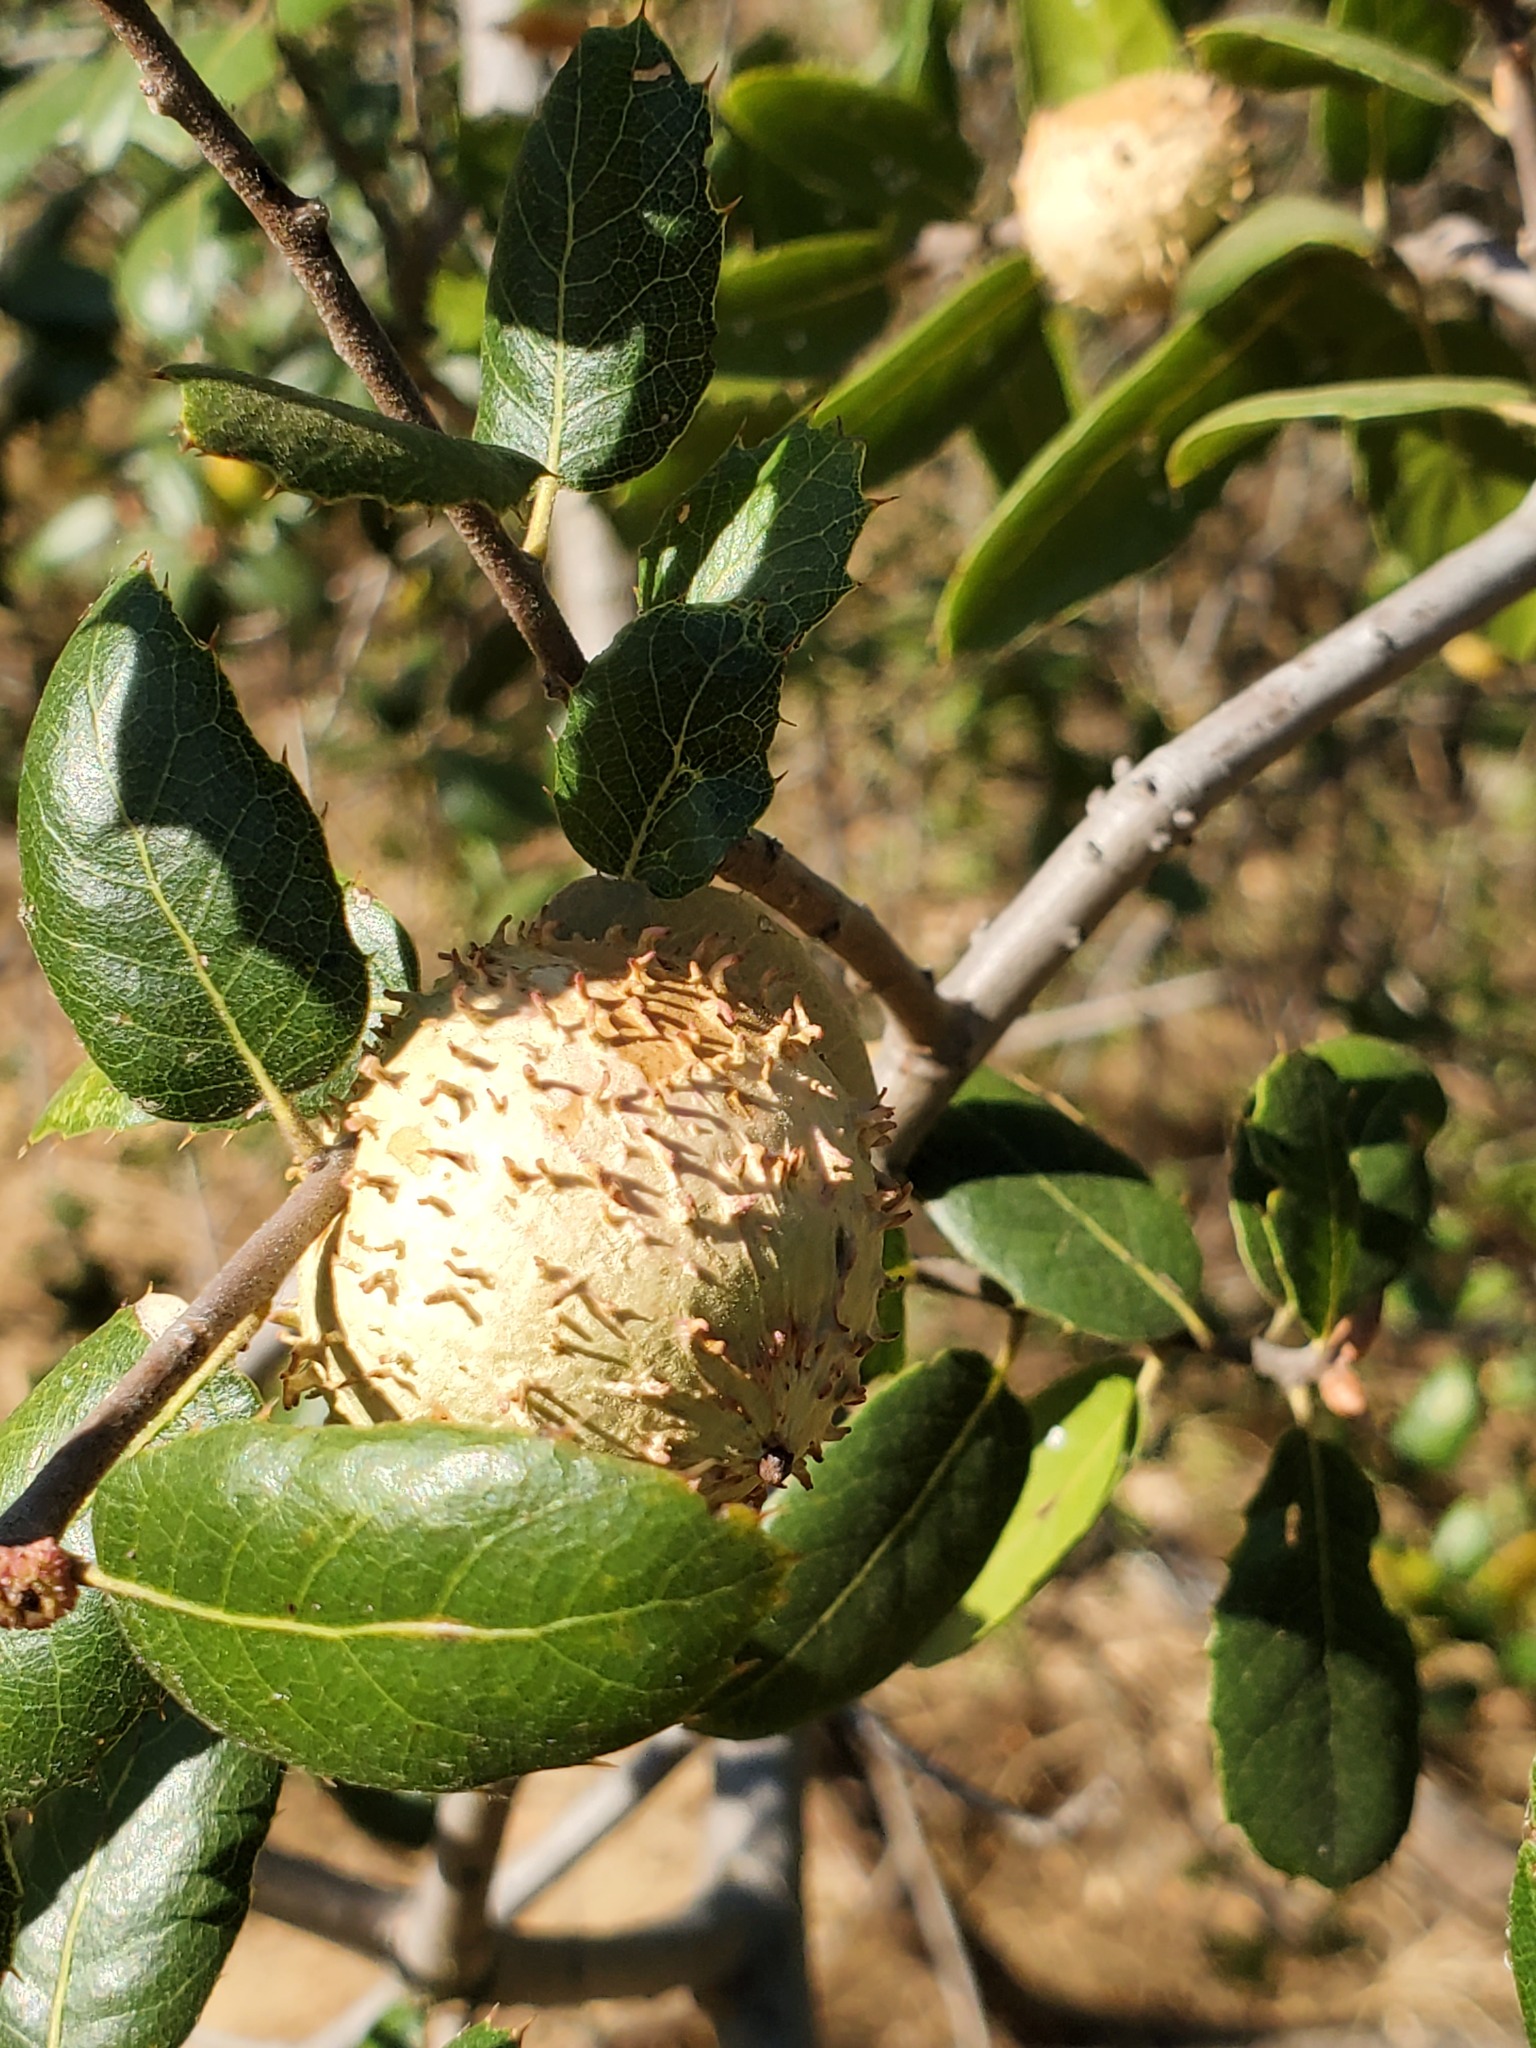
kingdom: Animalia
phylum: Arthropoda
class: Insecta
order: Hymenoptera
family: Cynipidae
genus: Amphibolips
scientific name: Amphibolips quercuspomiformis
